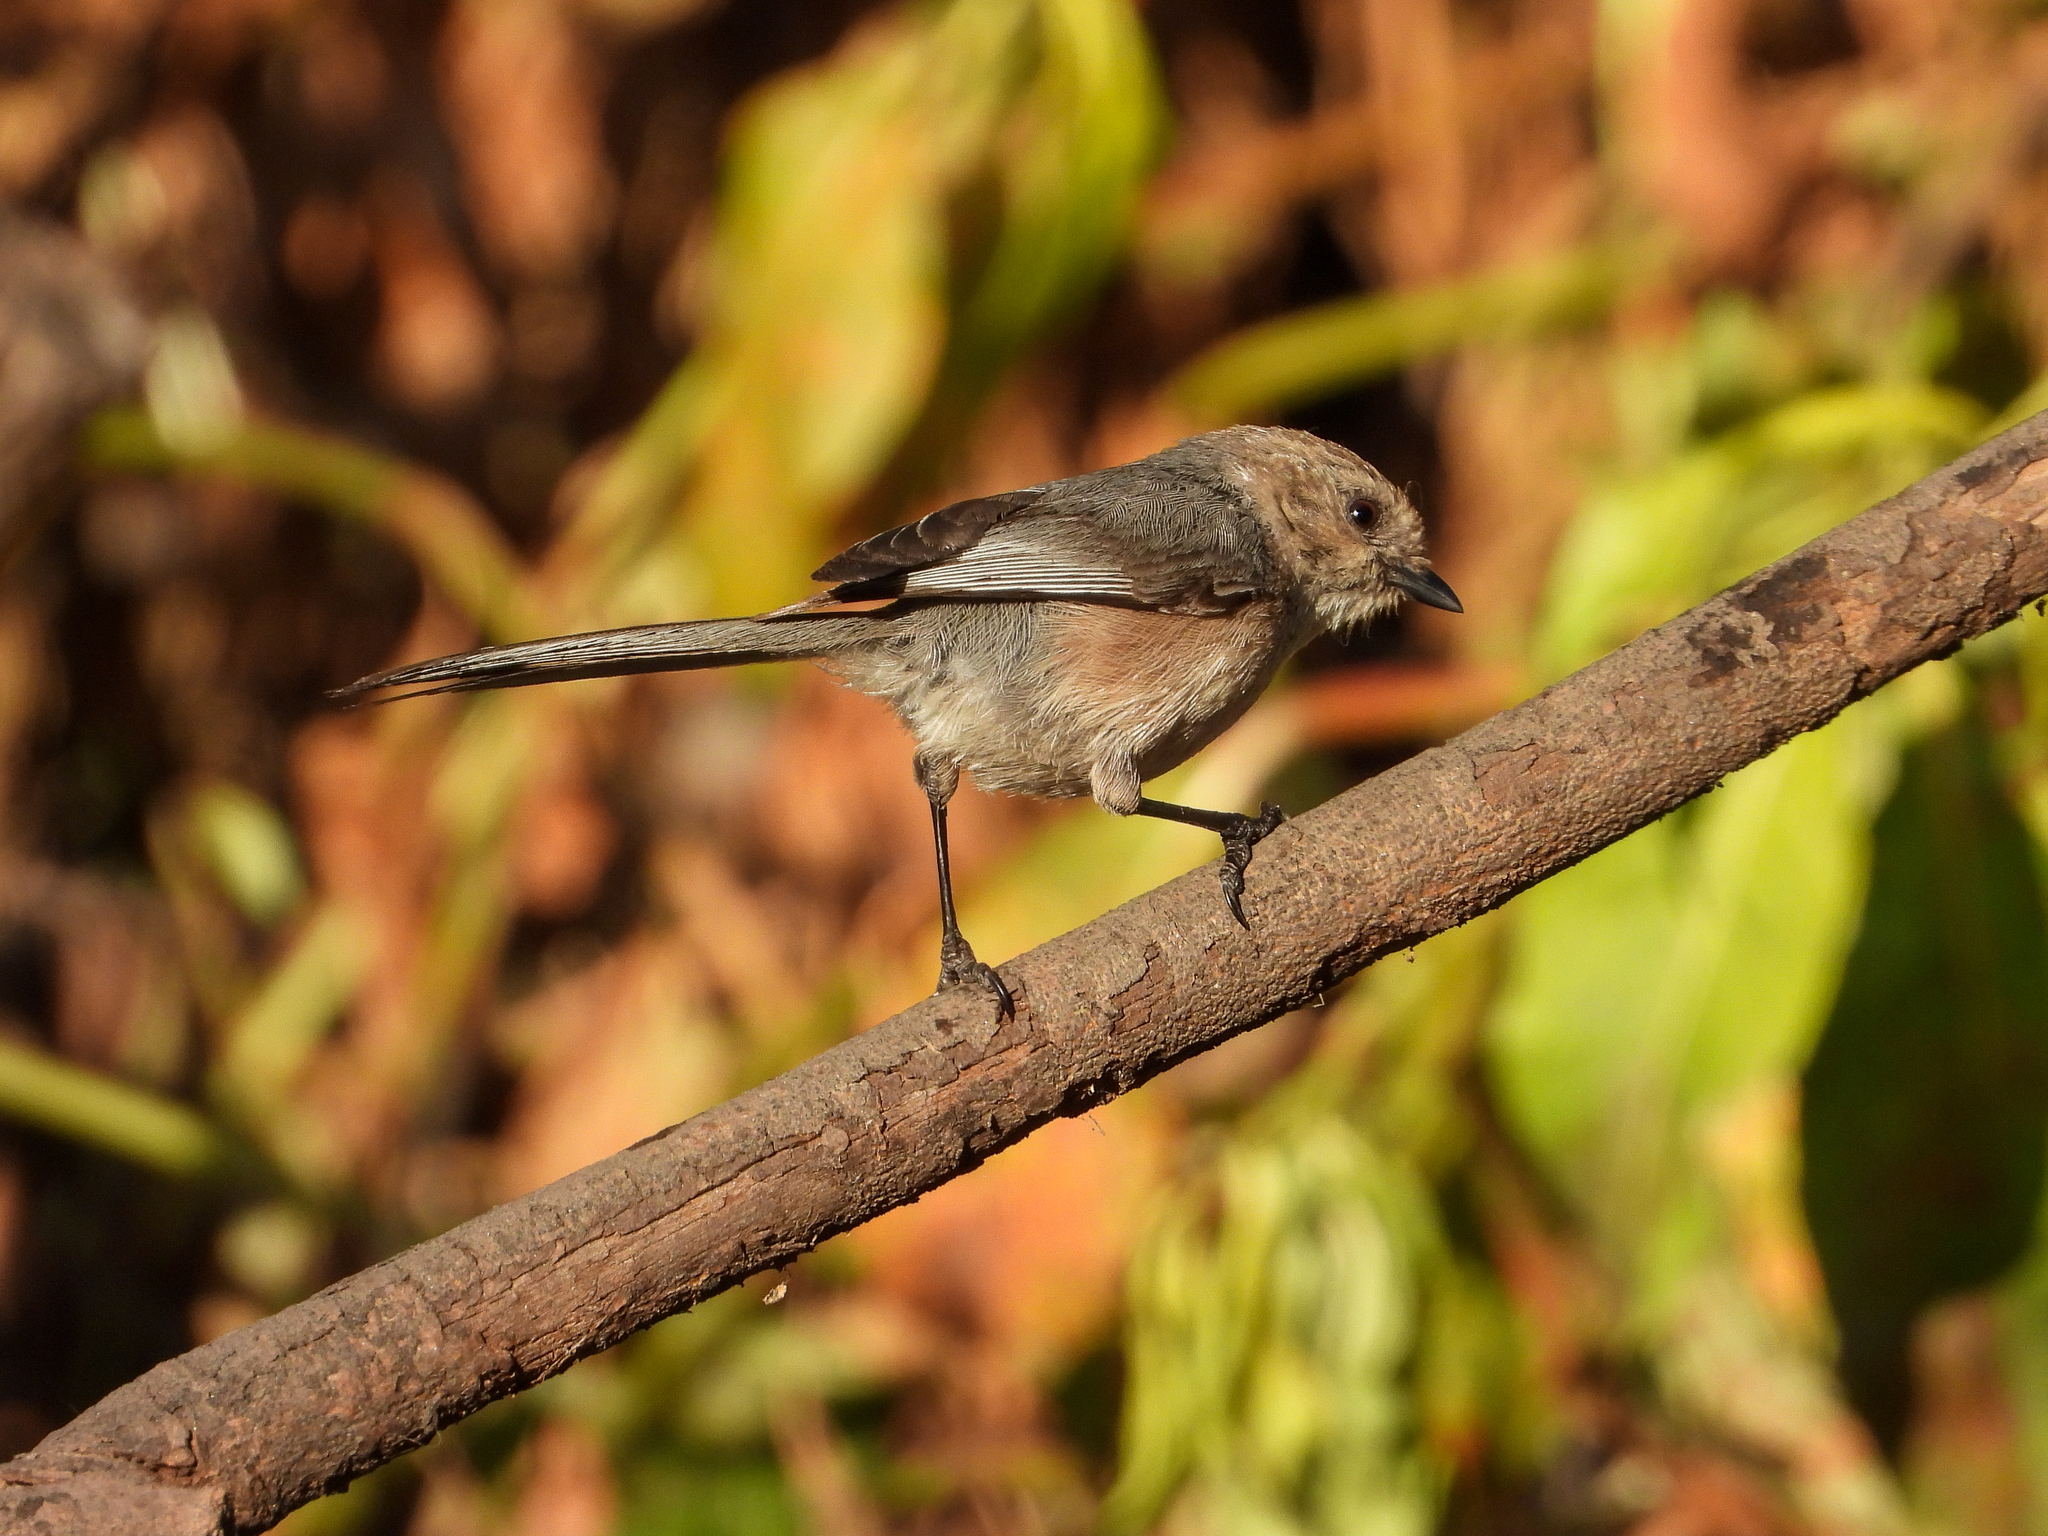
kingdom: Animalia
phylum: Chordata
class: Aves
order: Passeriformes
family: Aegithalidae
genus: Psaltriparus
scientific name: Psaltriparus minimus
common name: American bushtit
